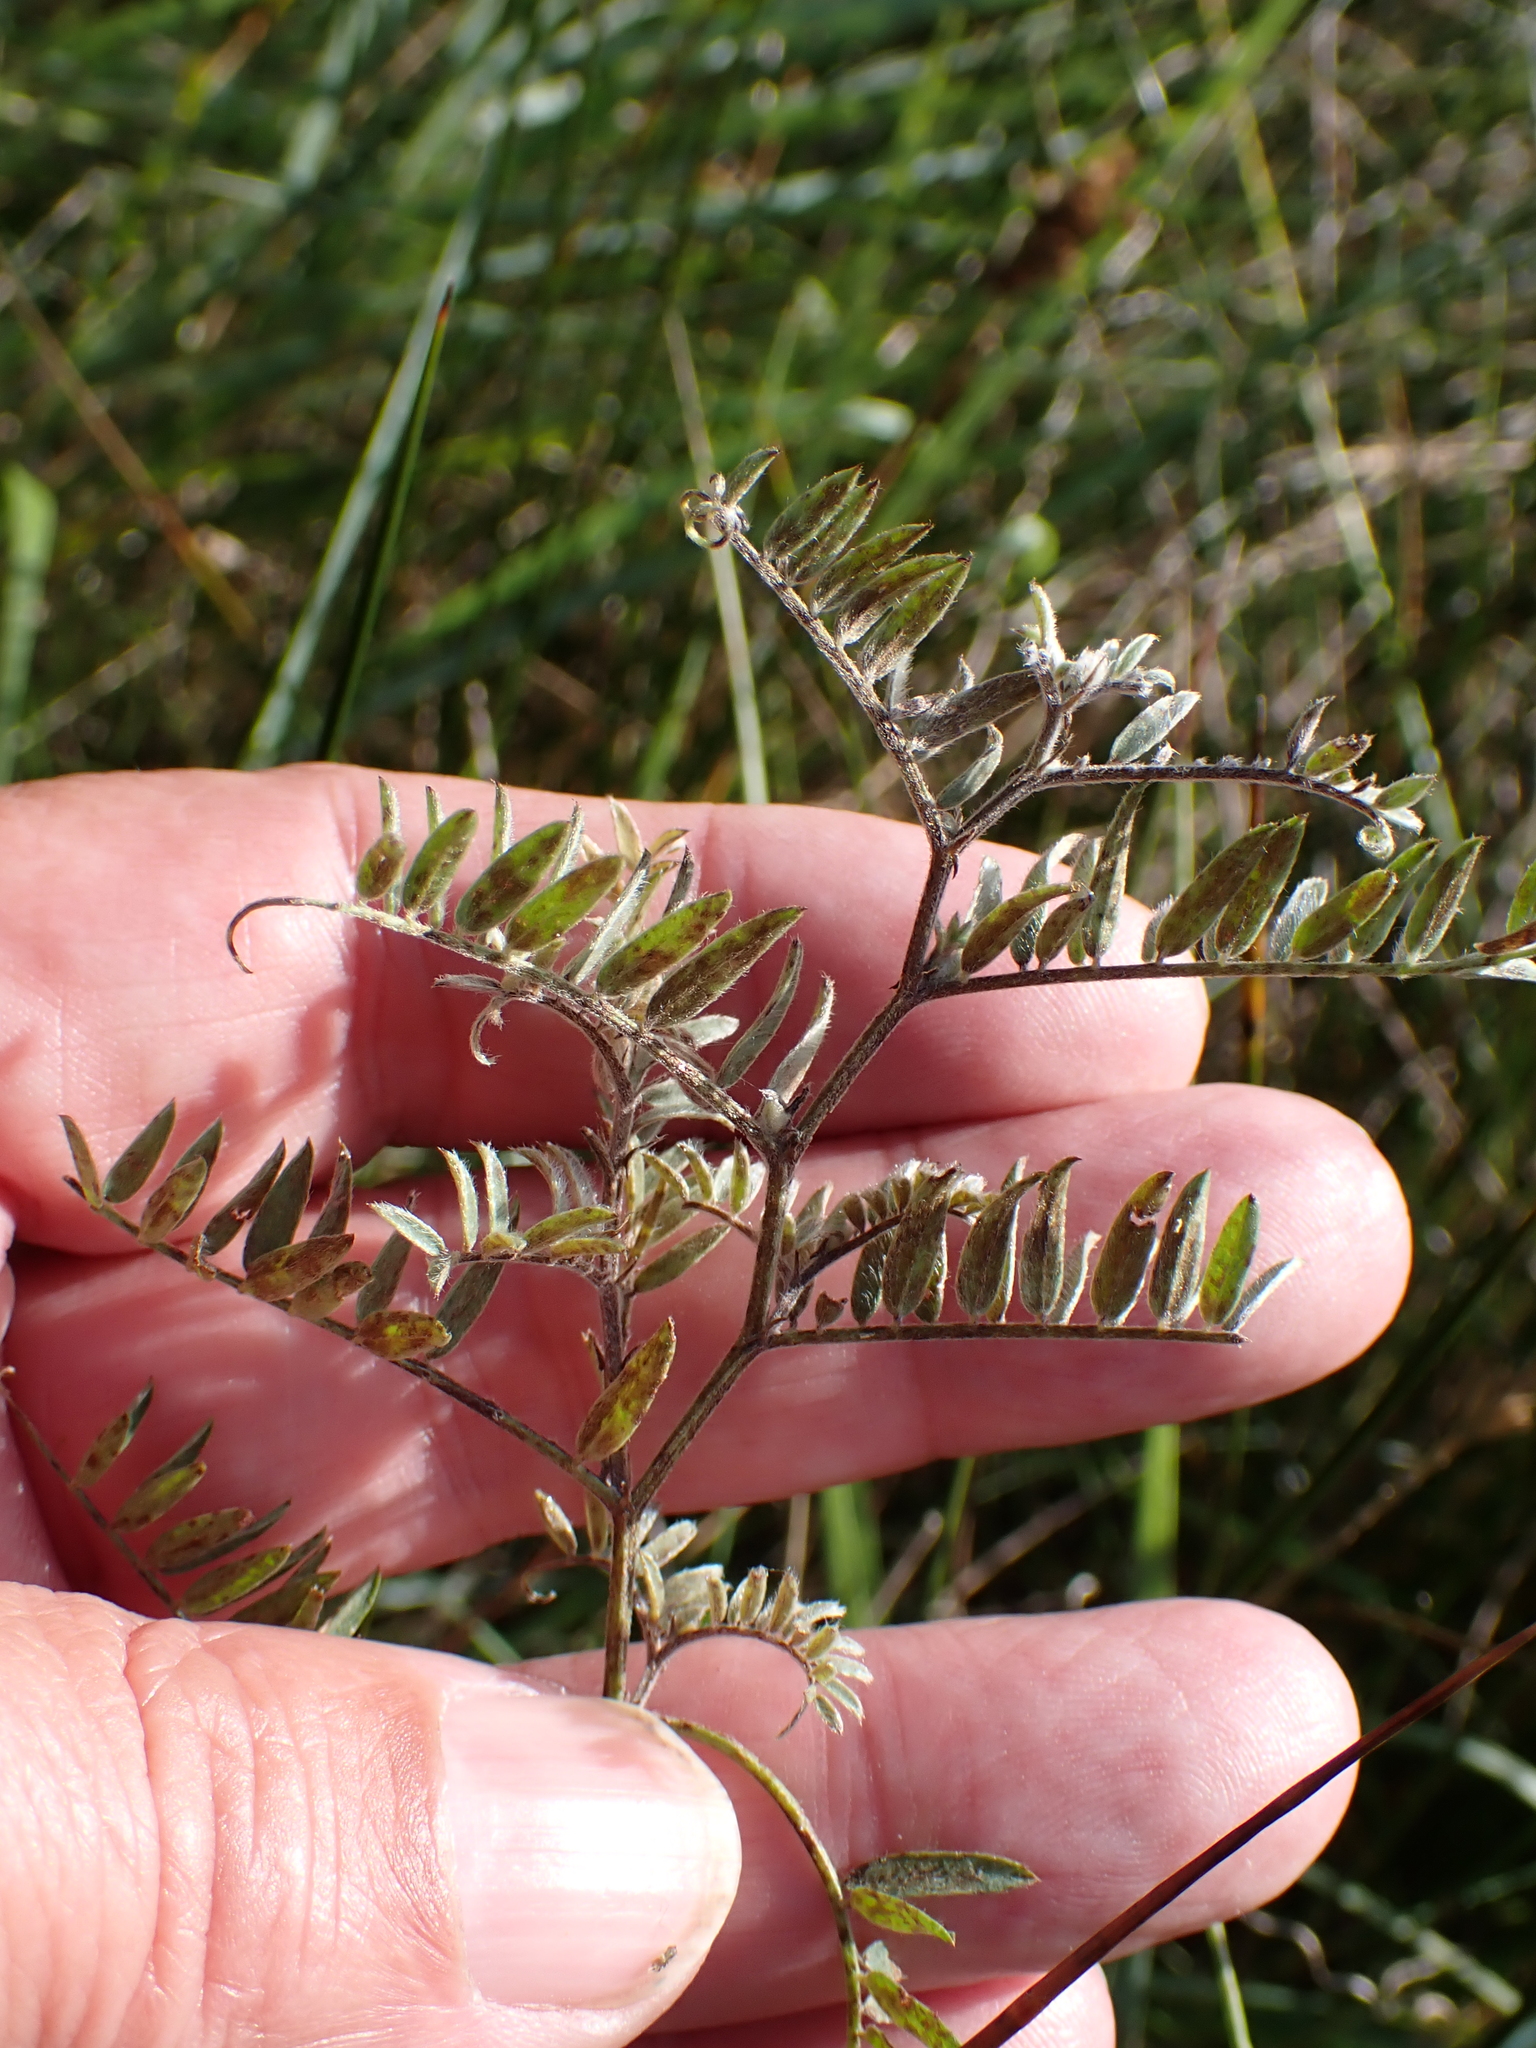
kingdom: Plantae
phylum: Tracheophyta
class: Magnoliopsida
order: Fabales
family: Fabaceae
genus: Vicia
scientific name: Vicia cracca
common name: Bird vetch
